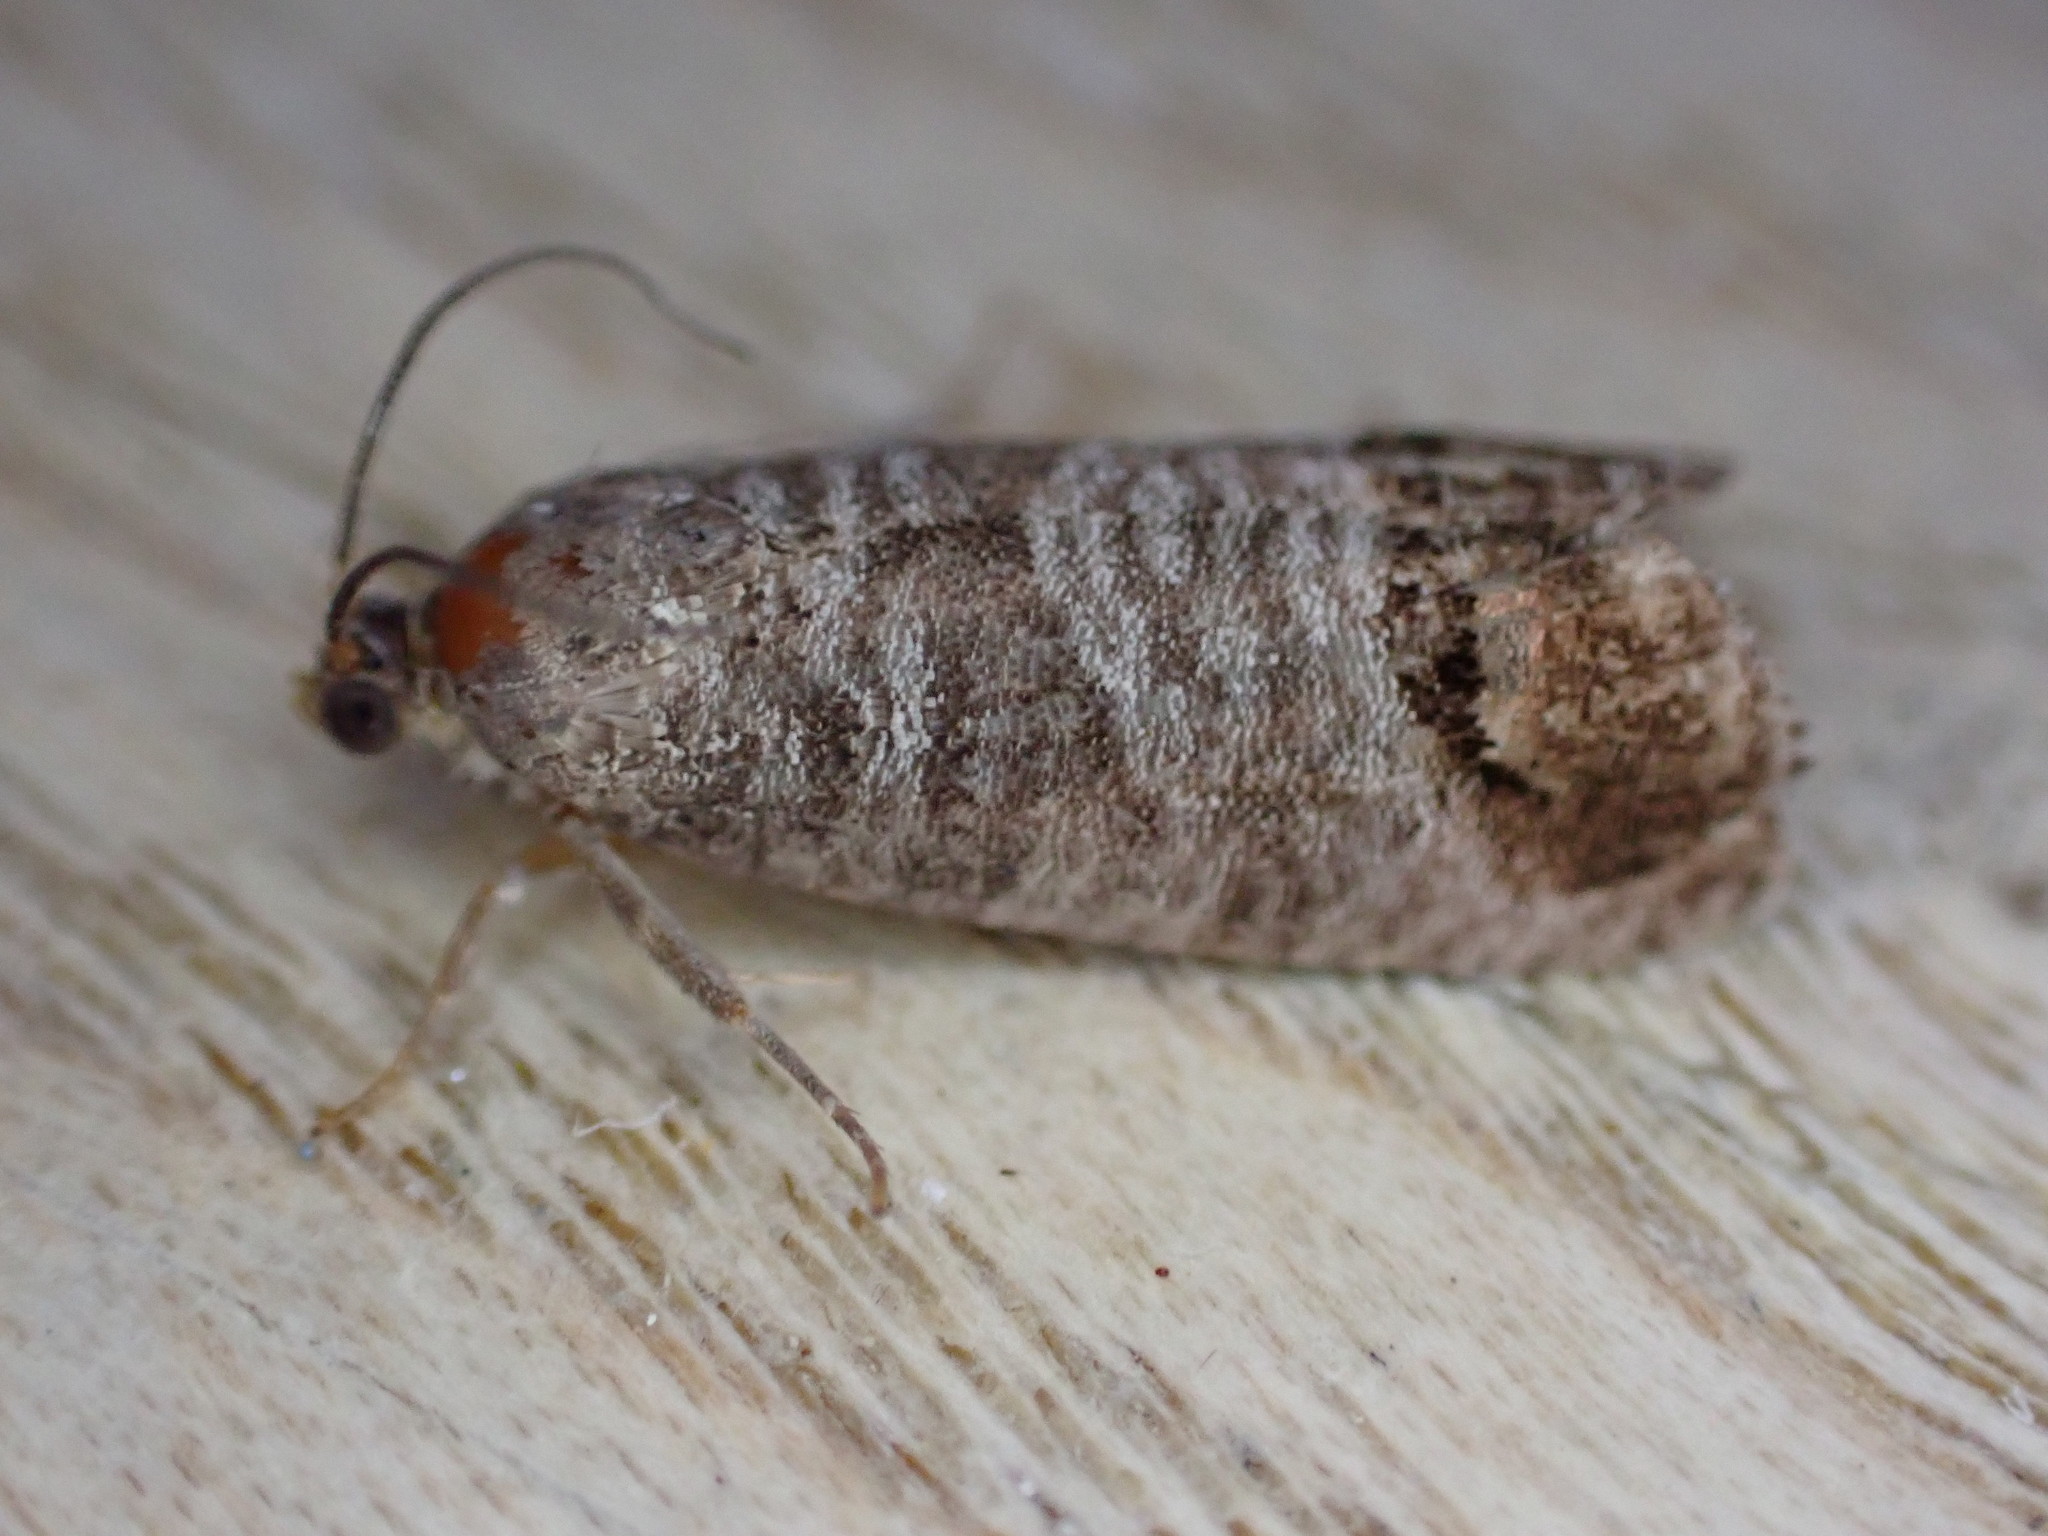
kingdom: Animalia
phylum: Arthropoda
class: Insecta
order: Lepidoptera
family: Tortricidae
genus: Cydia
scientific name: Cydia pomonella
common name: Codling moth
